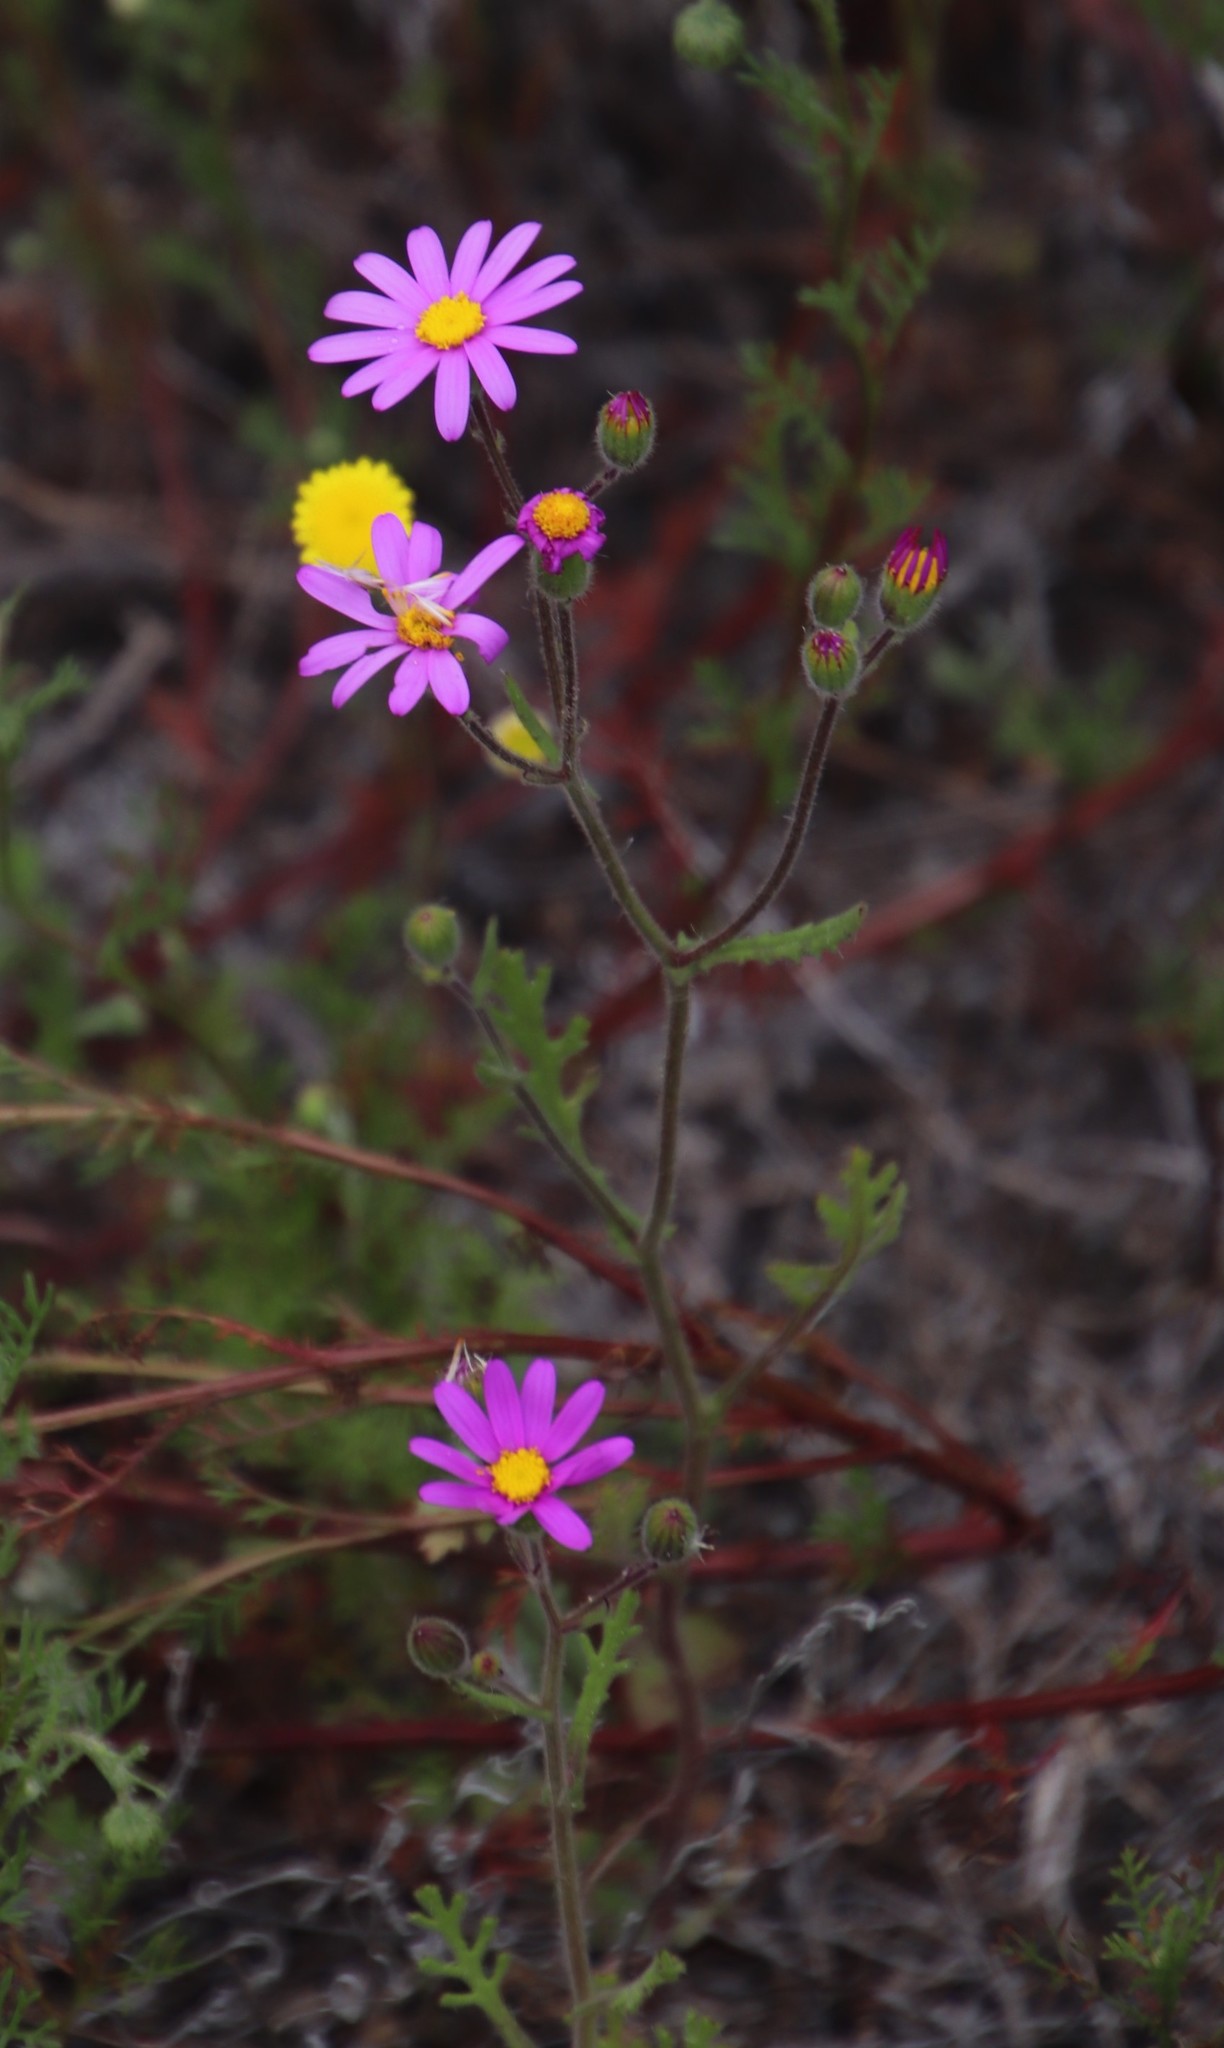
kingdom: Plantae
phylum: Tracheophyta
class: Magnoliopsida
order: Asterales
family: Asteraceae
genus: Senecio
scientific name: Senecio arenarius
